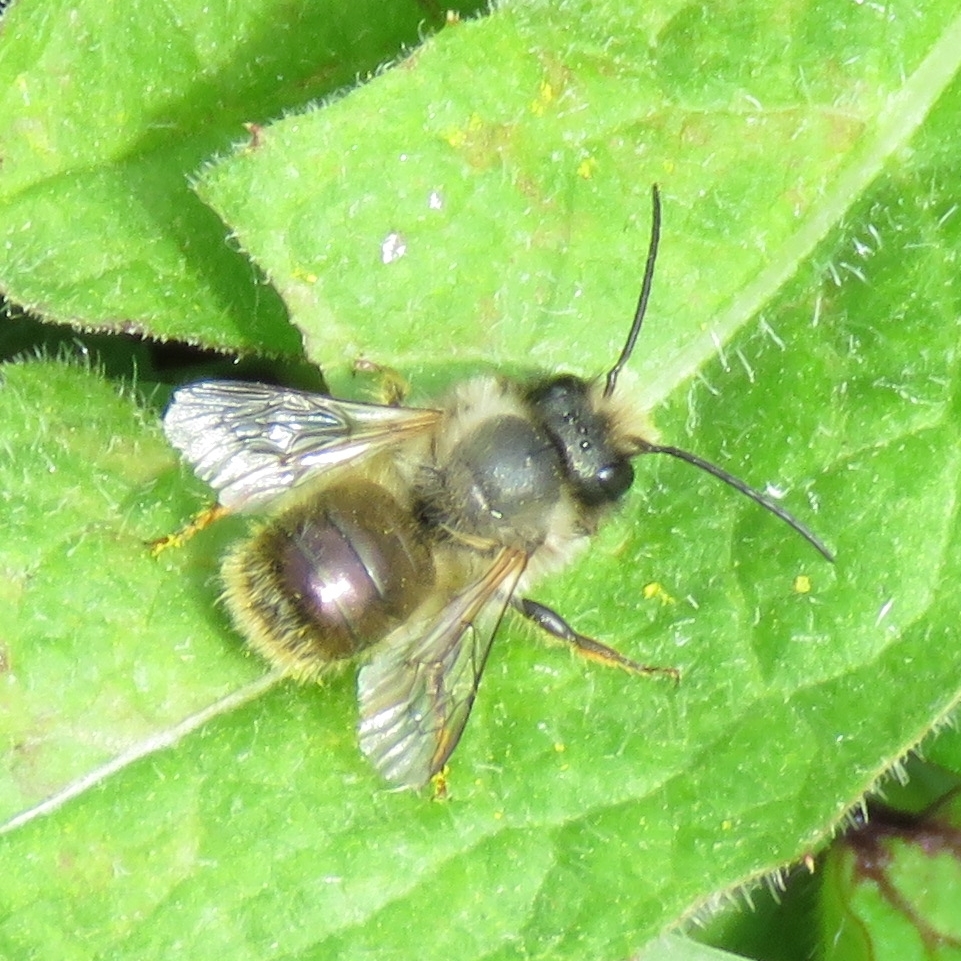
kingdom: Animalia
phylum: Arthropoda
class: Insecta
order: Hymenoptera
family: Megachilidae
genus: Osmia
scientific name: Osmia bicornis
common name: Red mason bee
